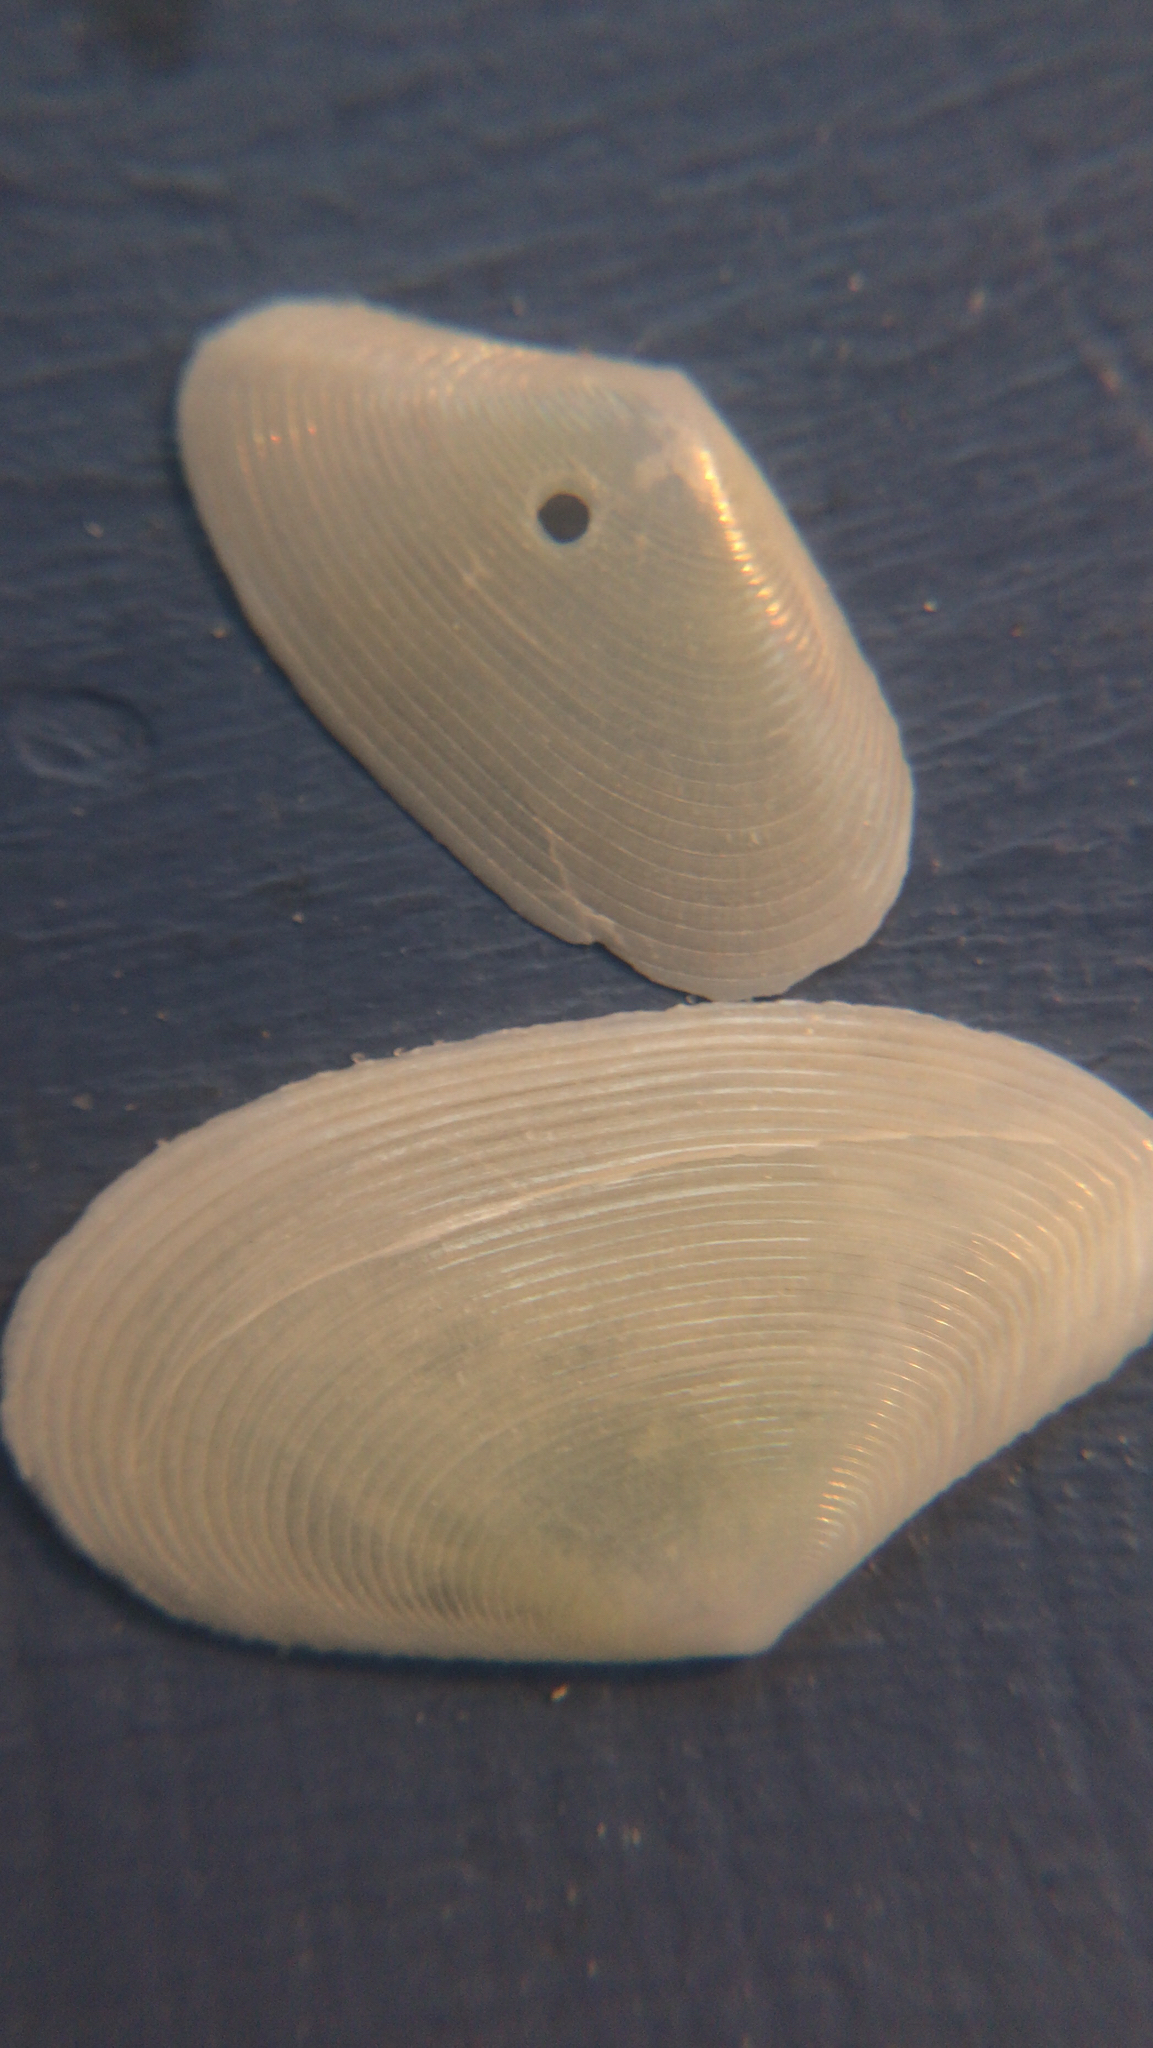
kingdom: Animalia
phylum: Mollusca
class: Bivalvia
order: Cardiida
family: Tellinidae
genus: Eurytellina
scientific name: Eurytellina alternata
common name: Alternate tellin
